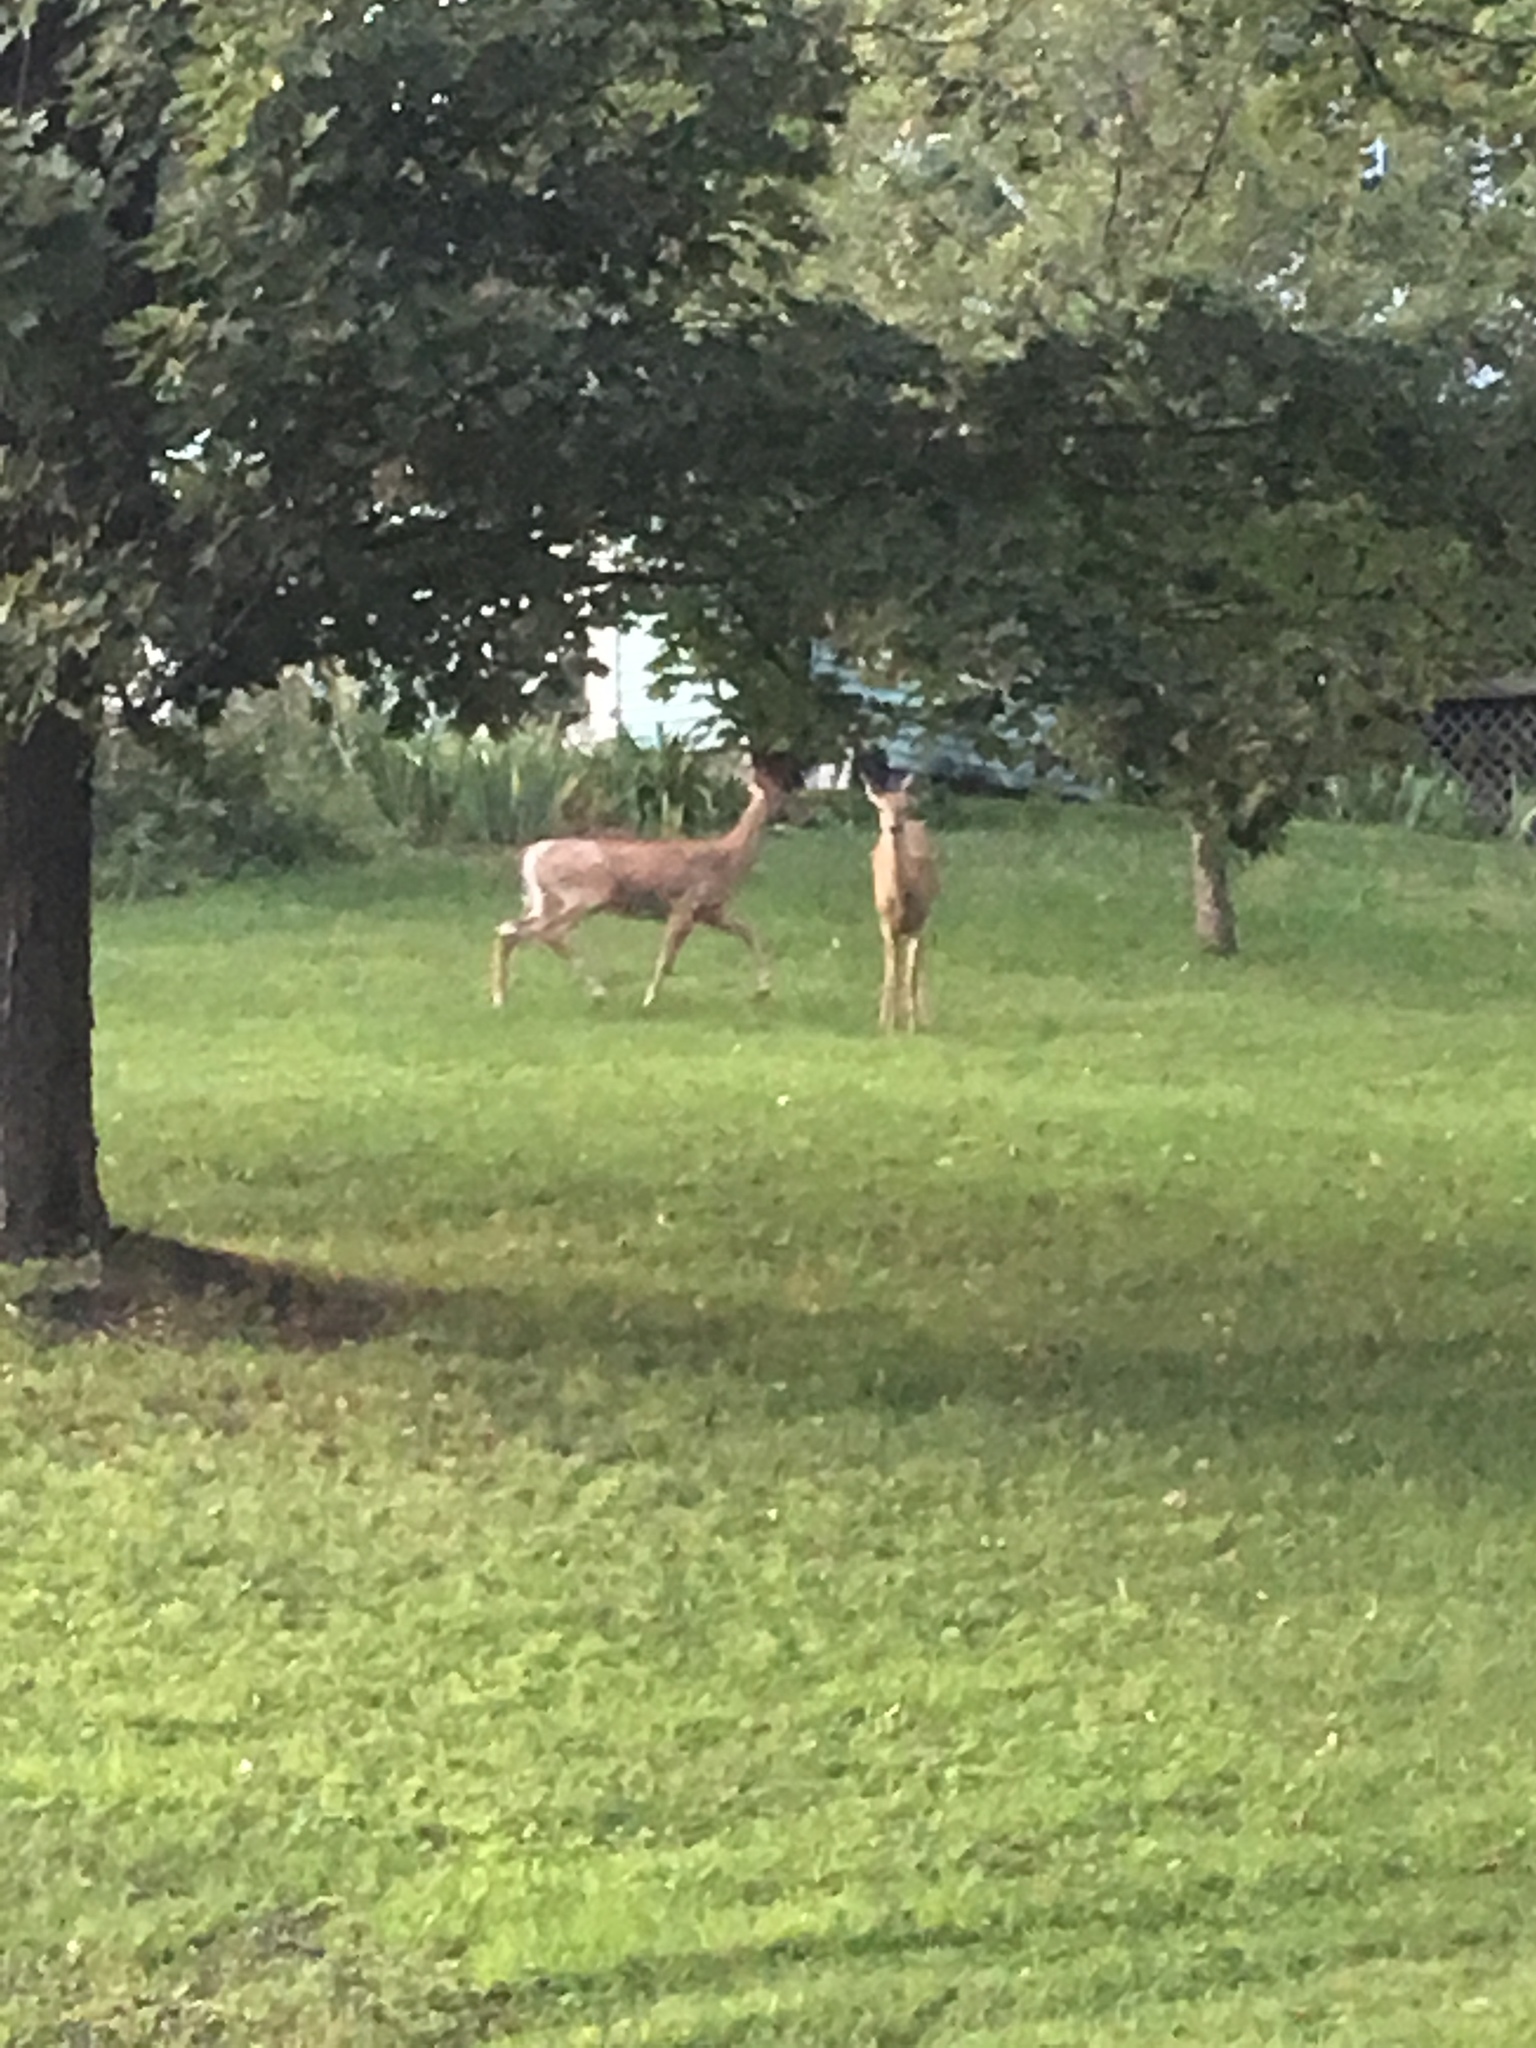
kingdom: Animalia
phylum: Chordata
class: Mammalia
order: Artiodactyla
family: Cervidae
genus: Odocoileus
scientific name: Odocoileus virginianus
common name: White-tailed deer
